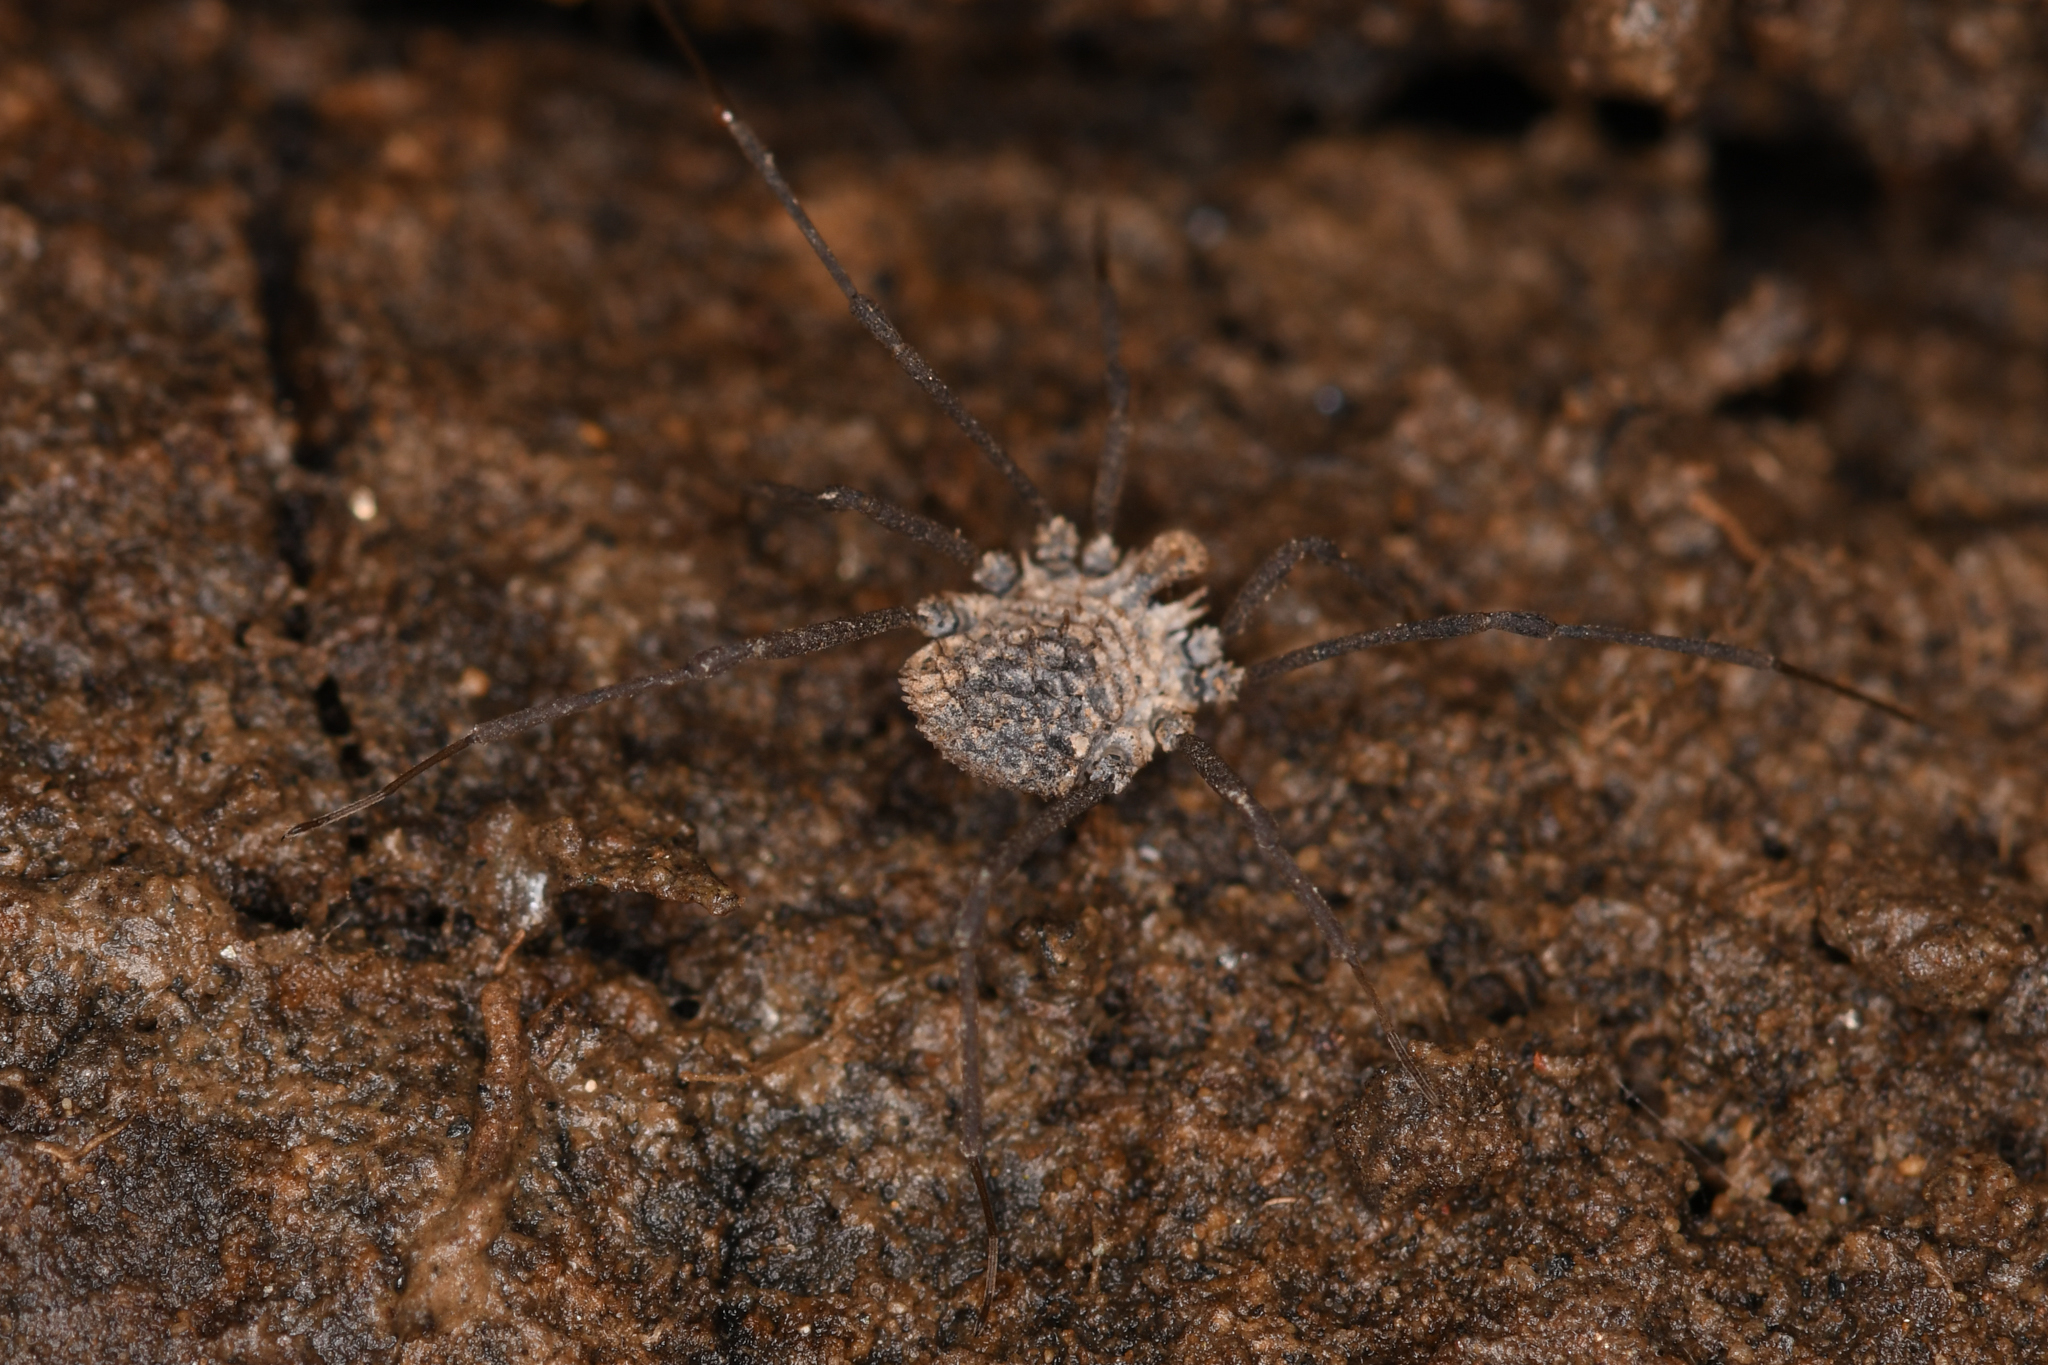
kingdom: Animalia
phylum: Arthropoda
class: Arachnida
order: Opiliones
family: Nemastomatidae
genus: Ortholasma
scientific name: Ortholasma coronadense
